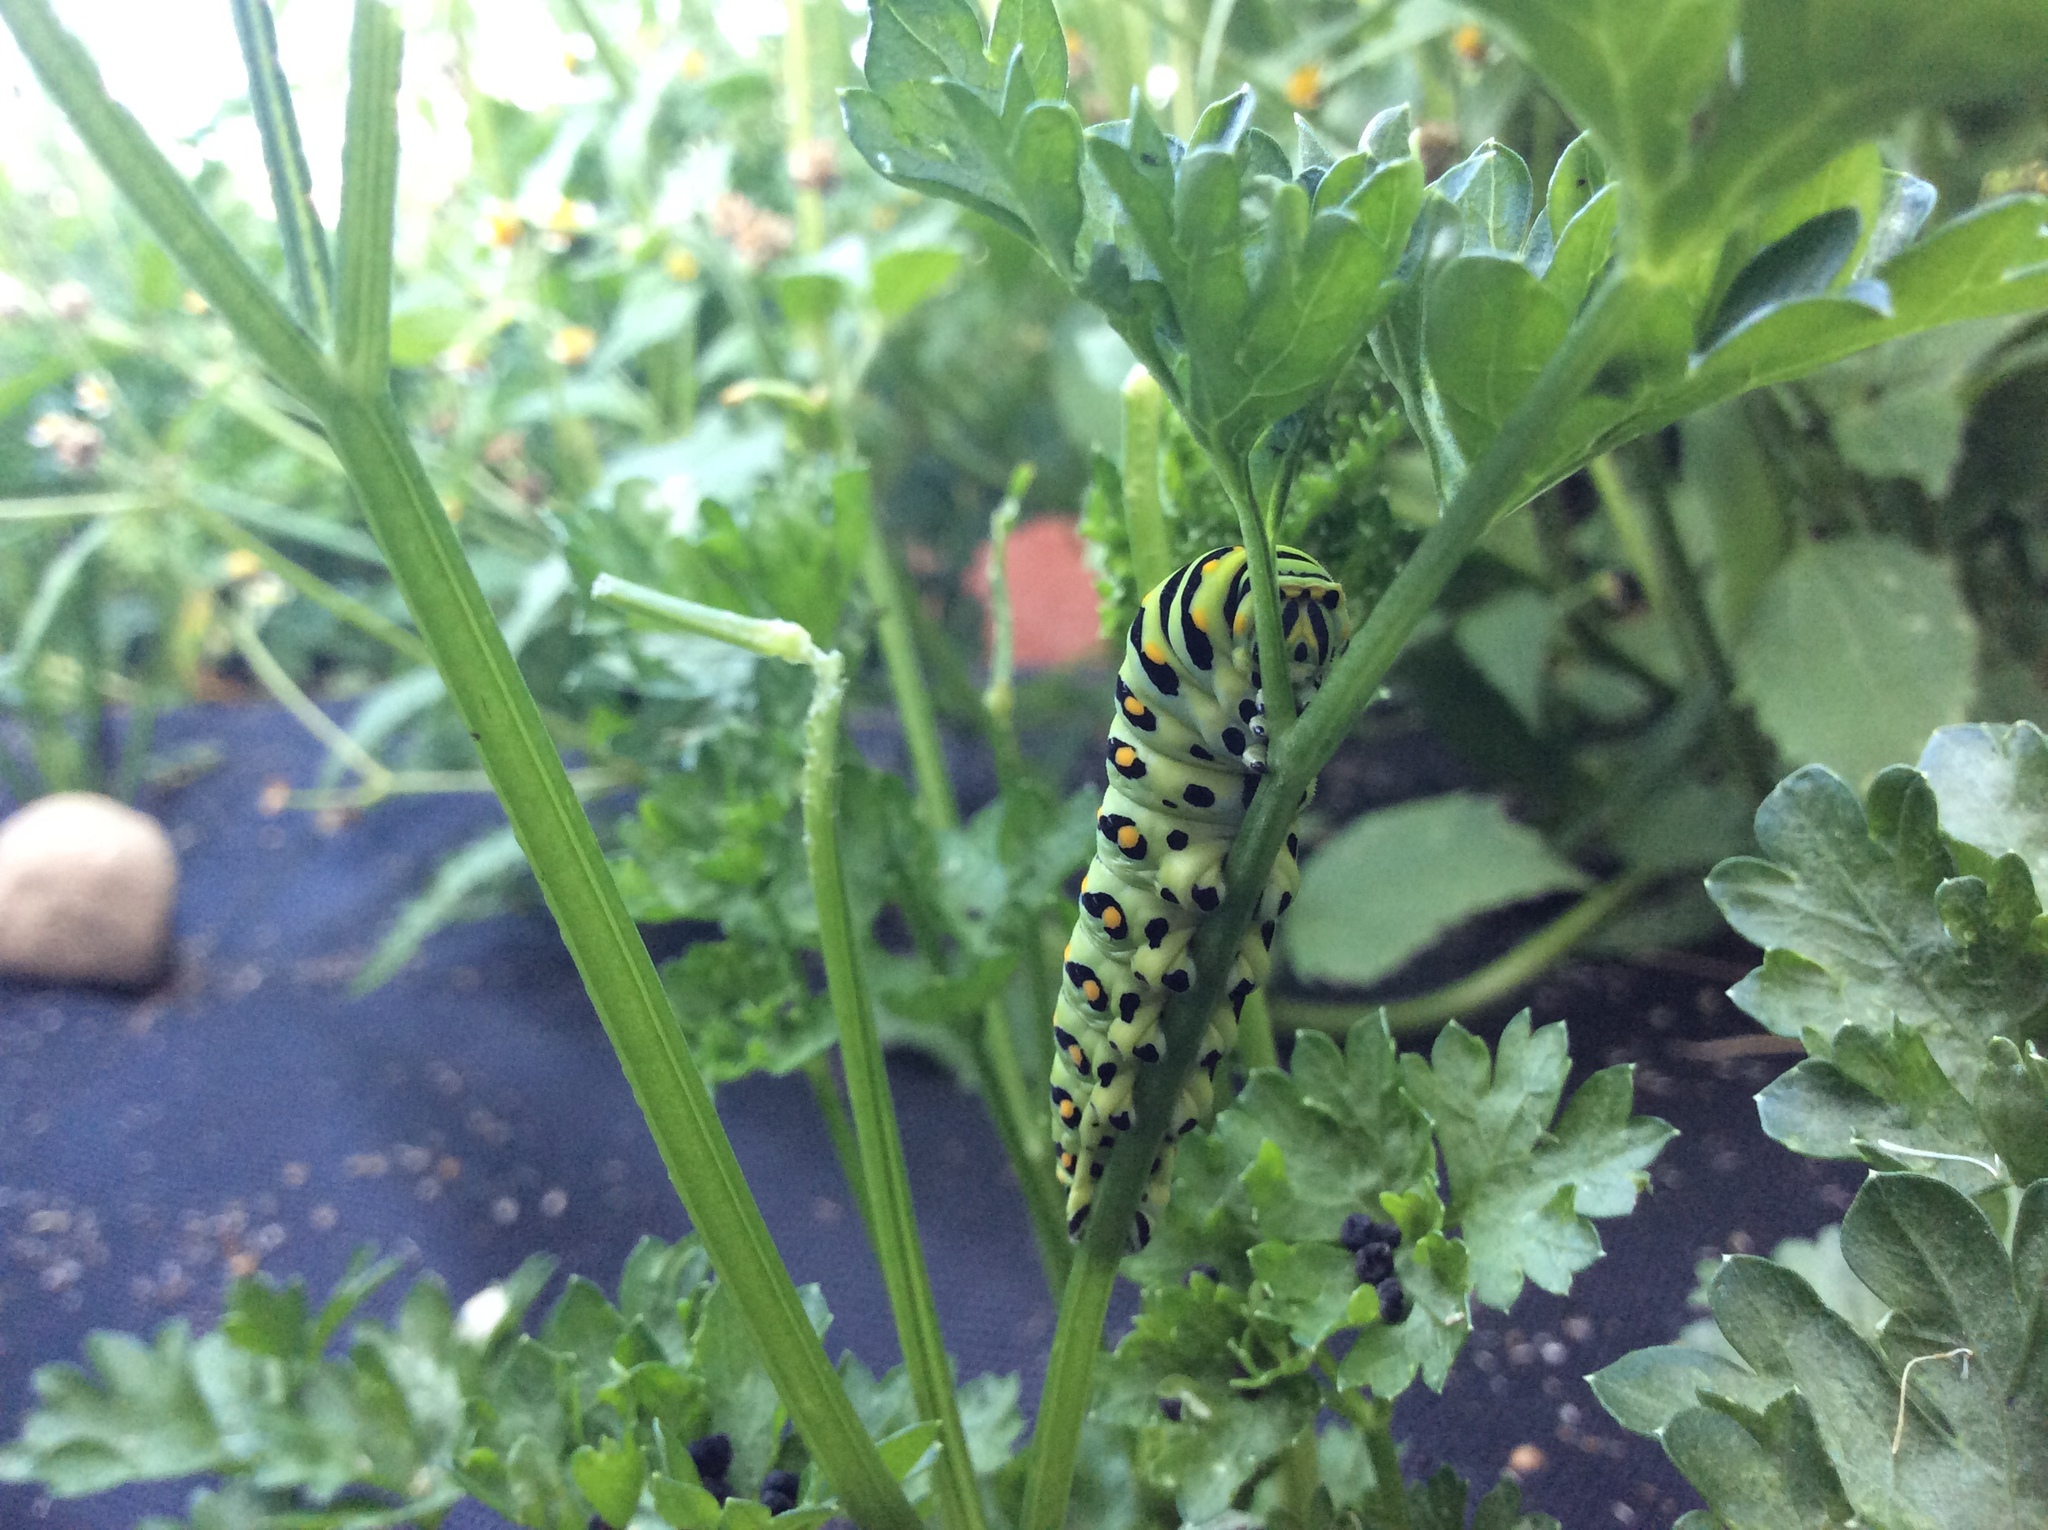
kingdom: Animalia
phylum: Arthropoda
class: Insecta
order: Lepidoptera
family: Papilionidae
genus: Papilio
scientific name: Papilio polyxenes
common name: Black swallowtail
